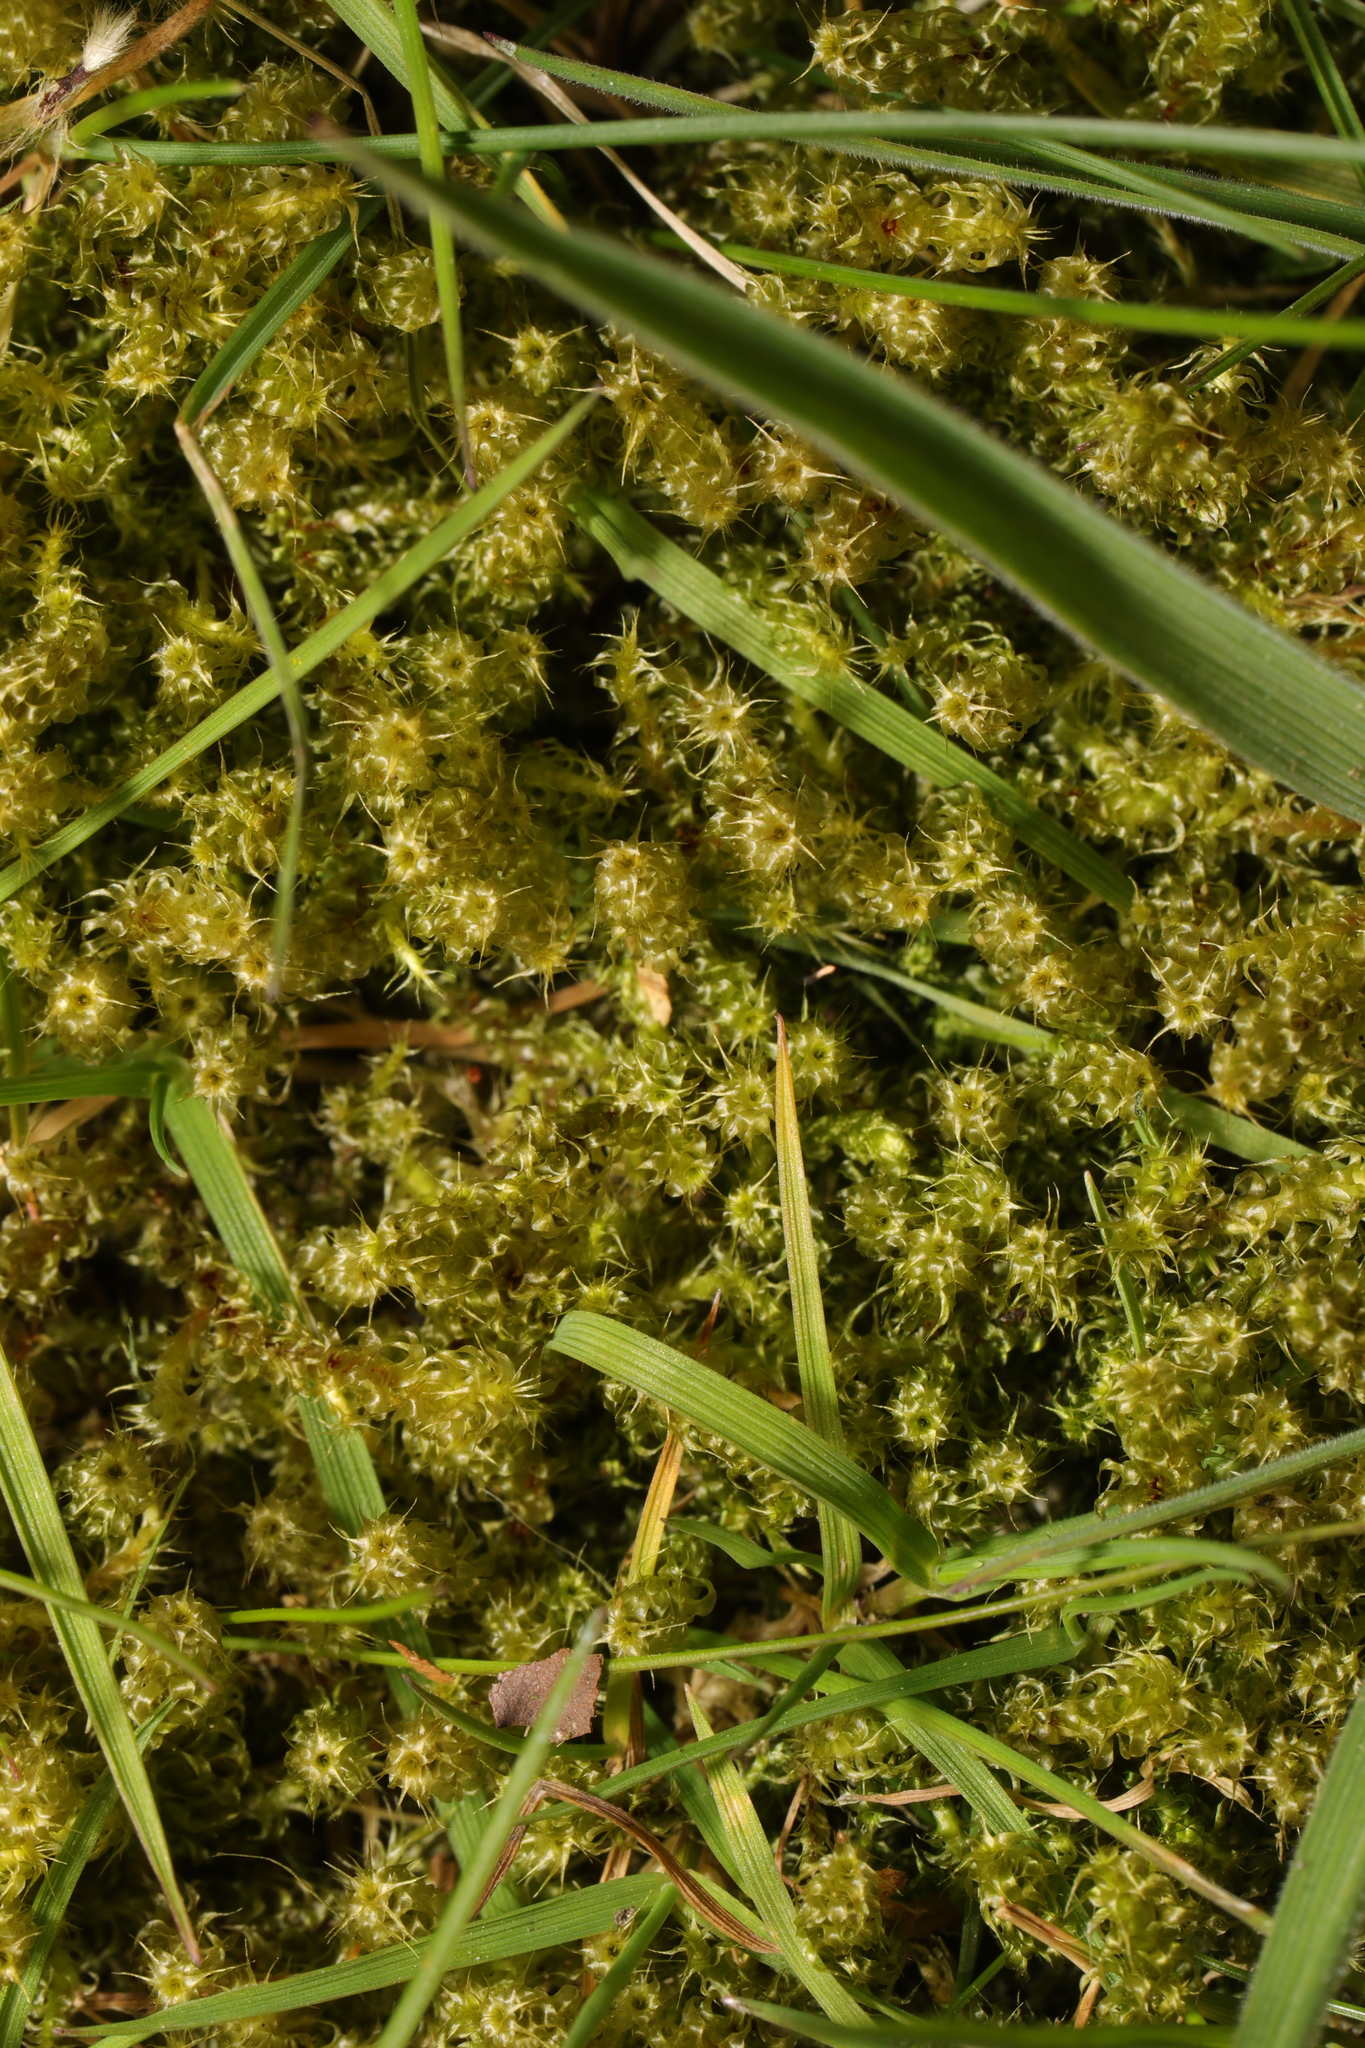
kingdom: Plantae
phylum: Bryophyta
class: Bryopsida
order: Hypnales
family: Hylocomiaceae
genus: Rhytidiadelphus
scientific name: Rhytidiadelphus squarrosus
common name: Springy turf-moss
